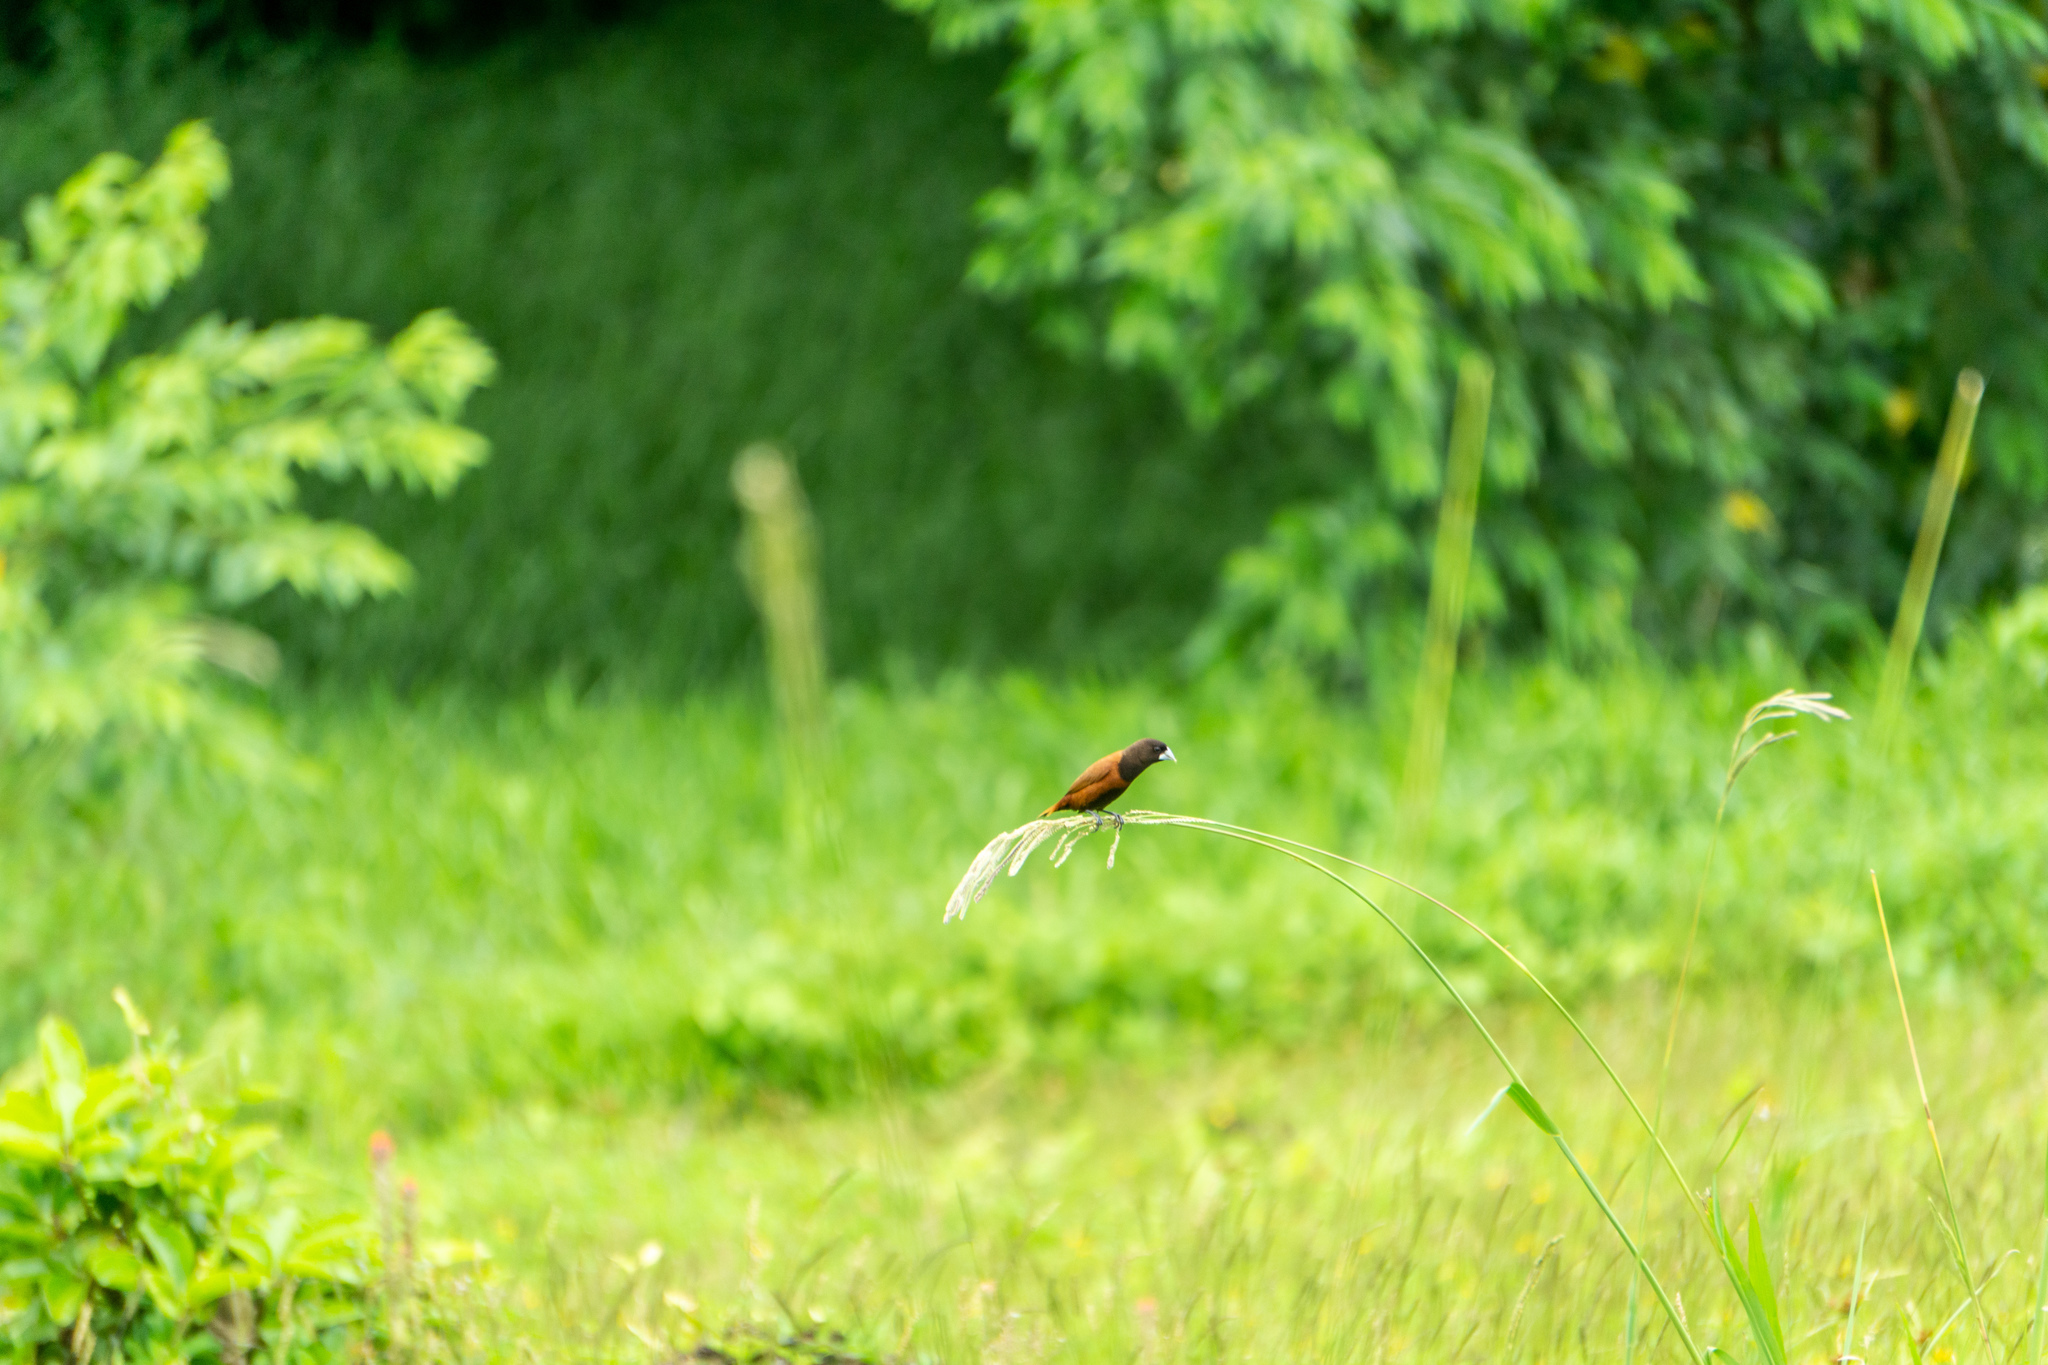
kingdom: Animalia
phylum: Chordata
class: Aves
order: Passeriformes
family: Estrildidae
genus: Lonchura
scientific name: Lonchura atricapilla
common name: Chestnut munia
